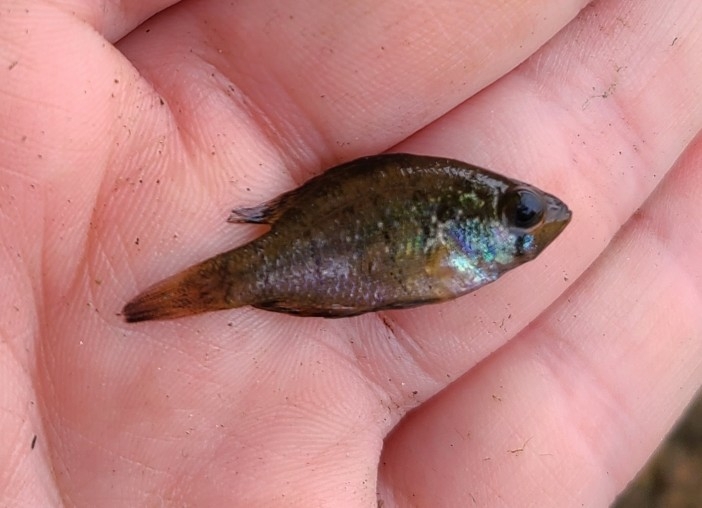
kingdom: Animalia
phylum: Chordata
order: Perciformes
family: Centrarchidae
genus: Enneacanthus
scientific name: Enneacanthus gloriosus
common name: Bluespotted sunfish
